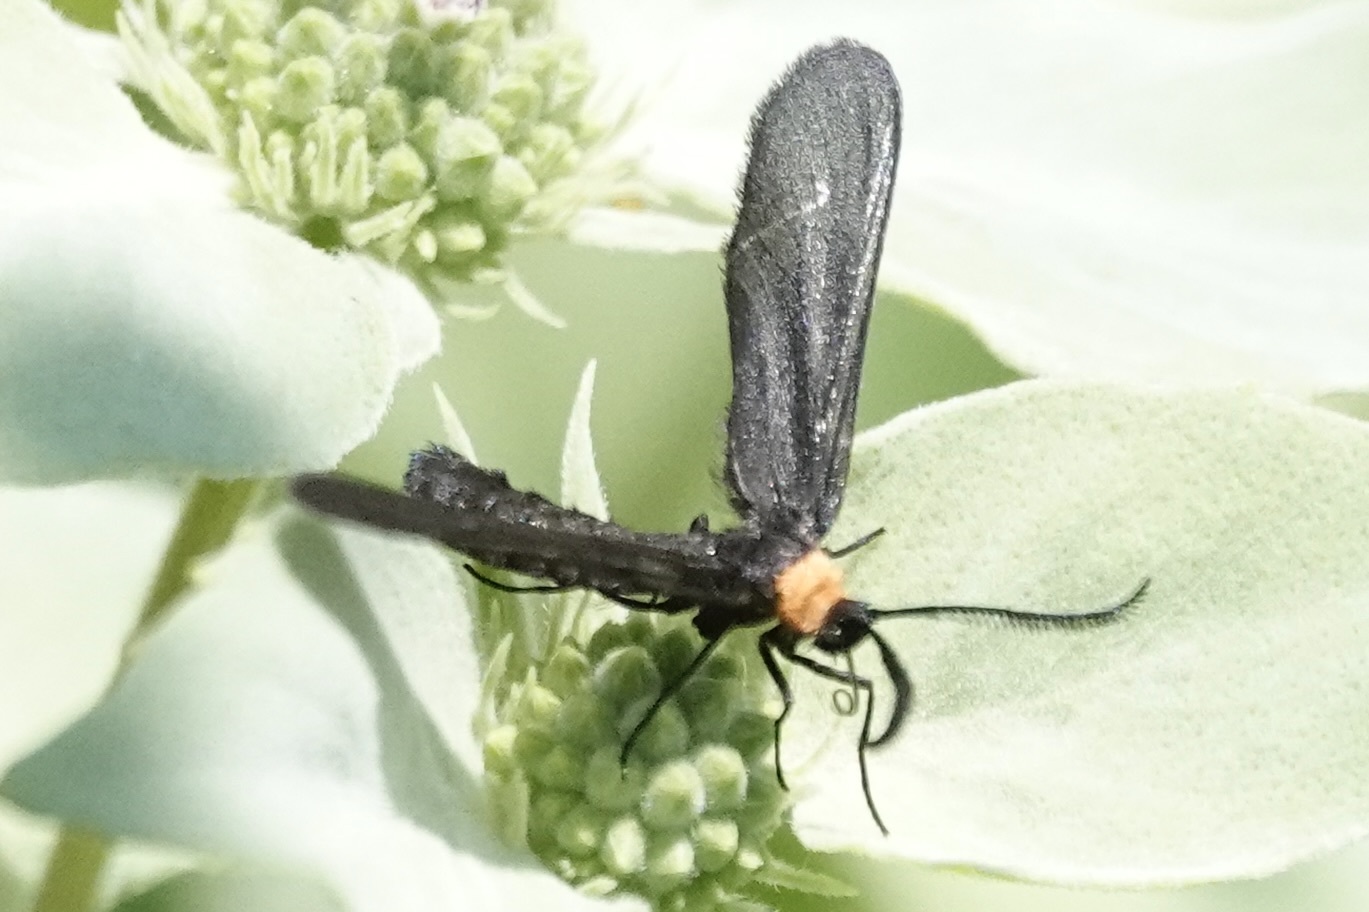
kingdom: Animalia
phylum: Arthropoda
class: Insecta
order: Lepidoptera
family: Zygaenidae
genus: Harrisina
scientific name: Harrisina americana
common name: Grapeleaf skeletonizer moth
